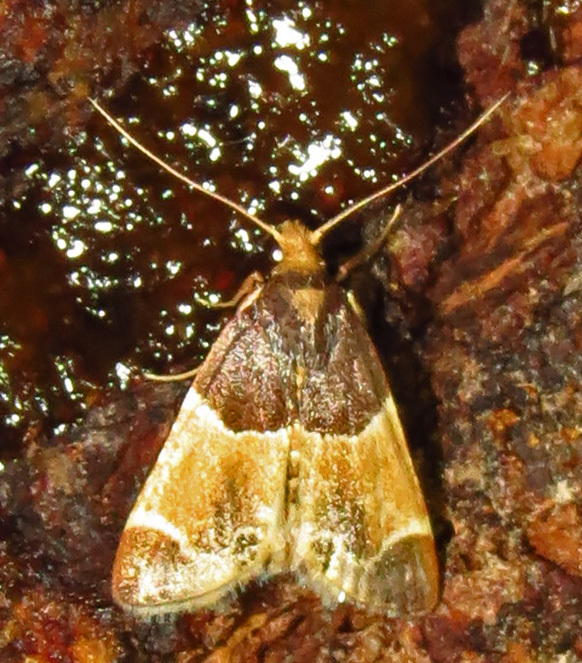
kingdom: Animalia
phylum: Arthropoda
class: Insecta
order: Lepidoptera
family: Pyralidae
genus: Pyralis
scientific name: Pyralis farinalis
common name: Meal moth
